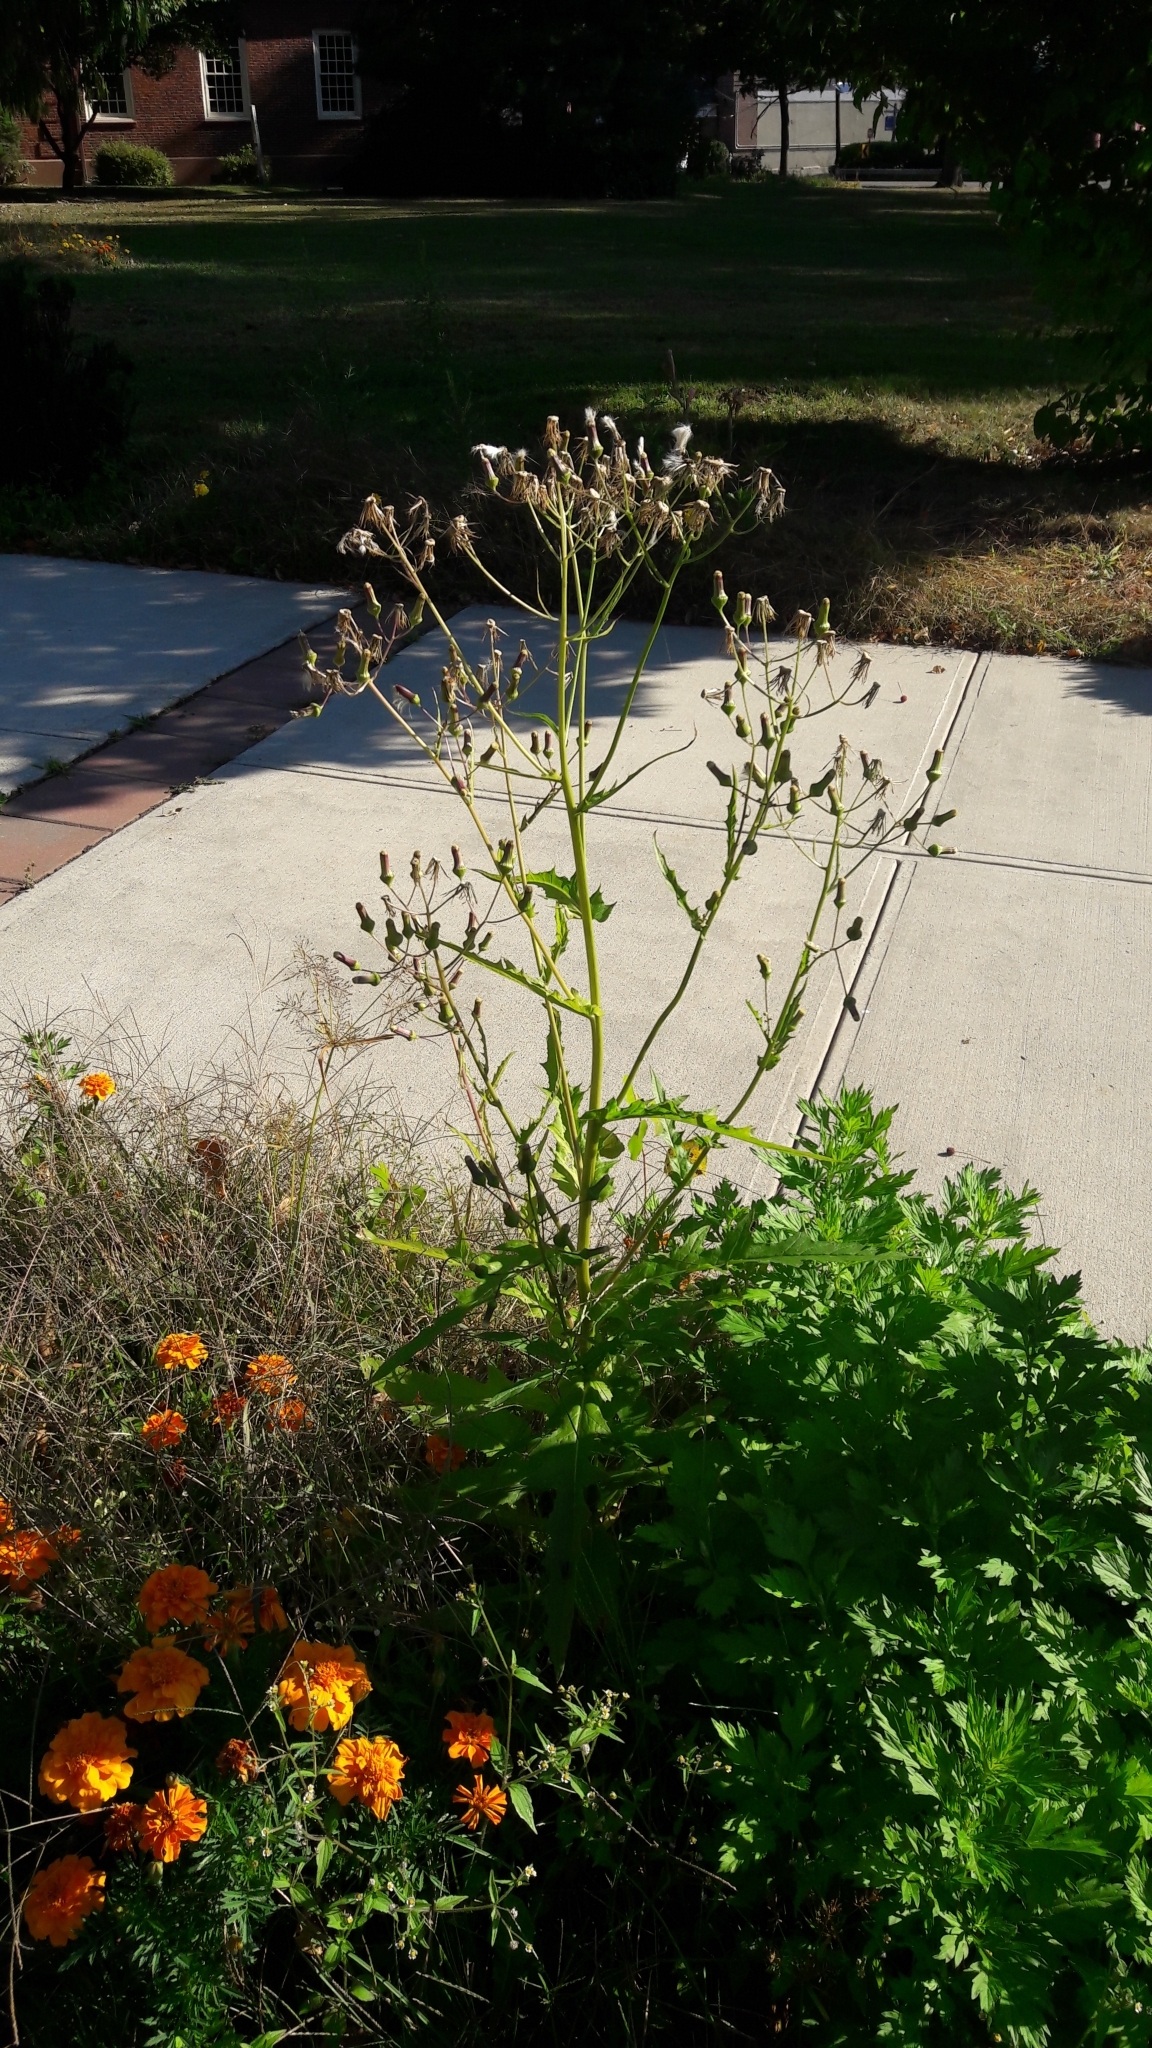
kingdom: Plantae
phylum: Tracheophyta
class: Magnoliopsida
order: Asterales
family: Asteraceae
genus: Erechtites
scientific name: Erechtites hieraciifolius
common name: American burnweed
